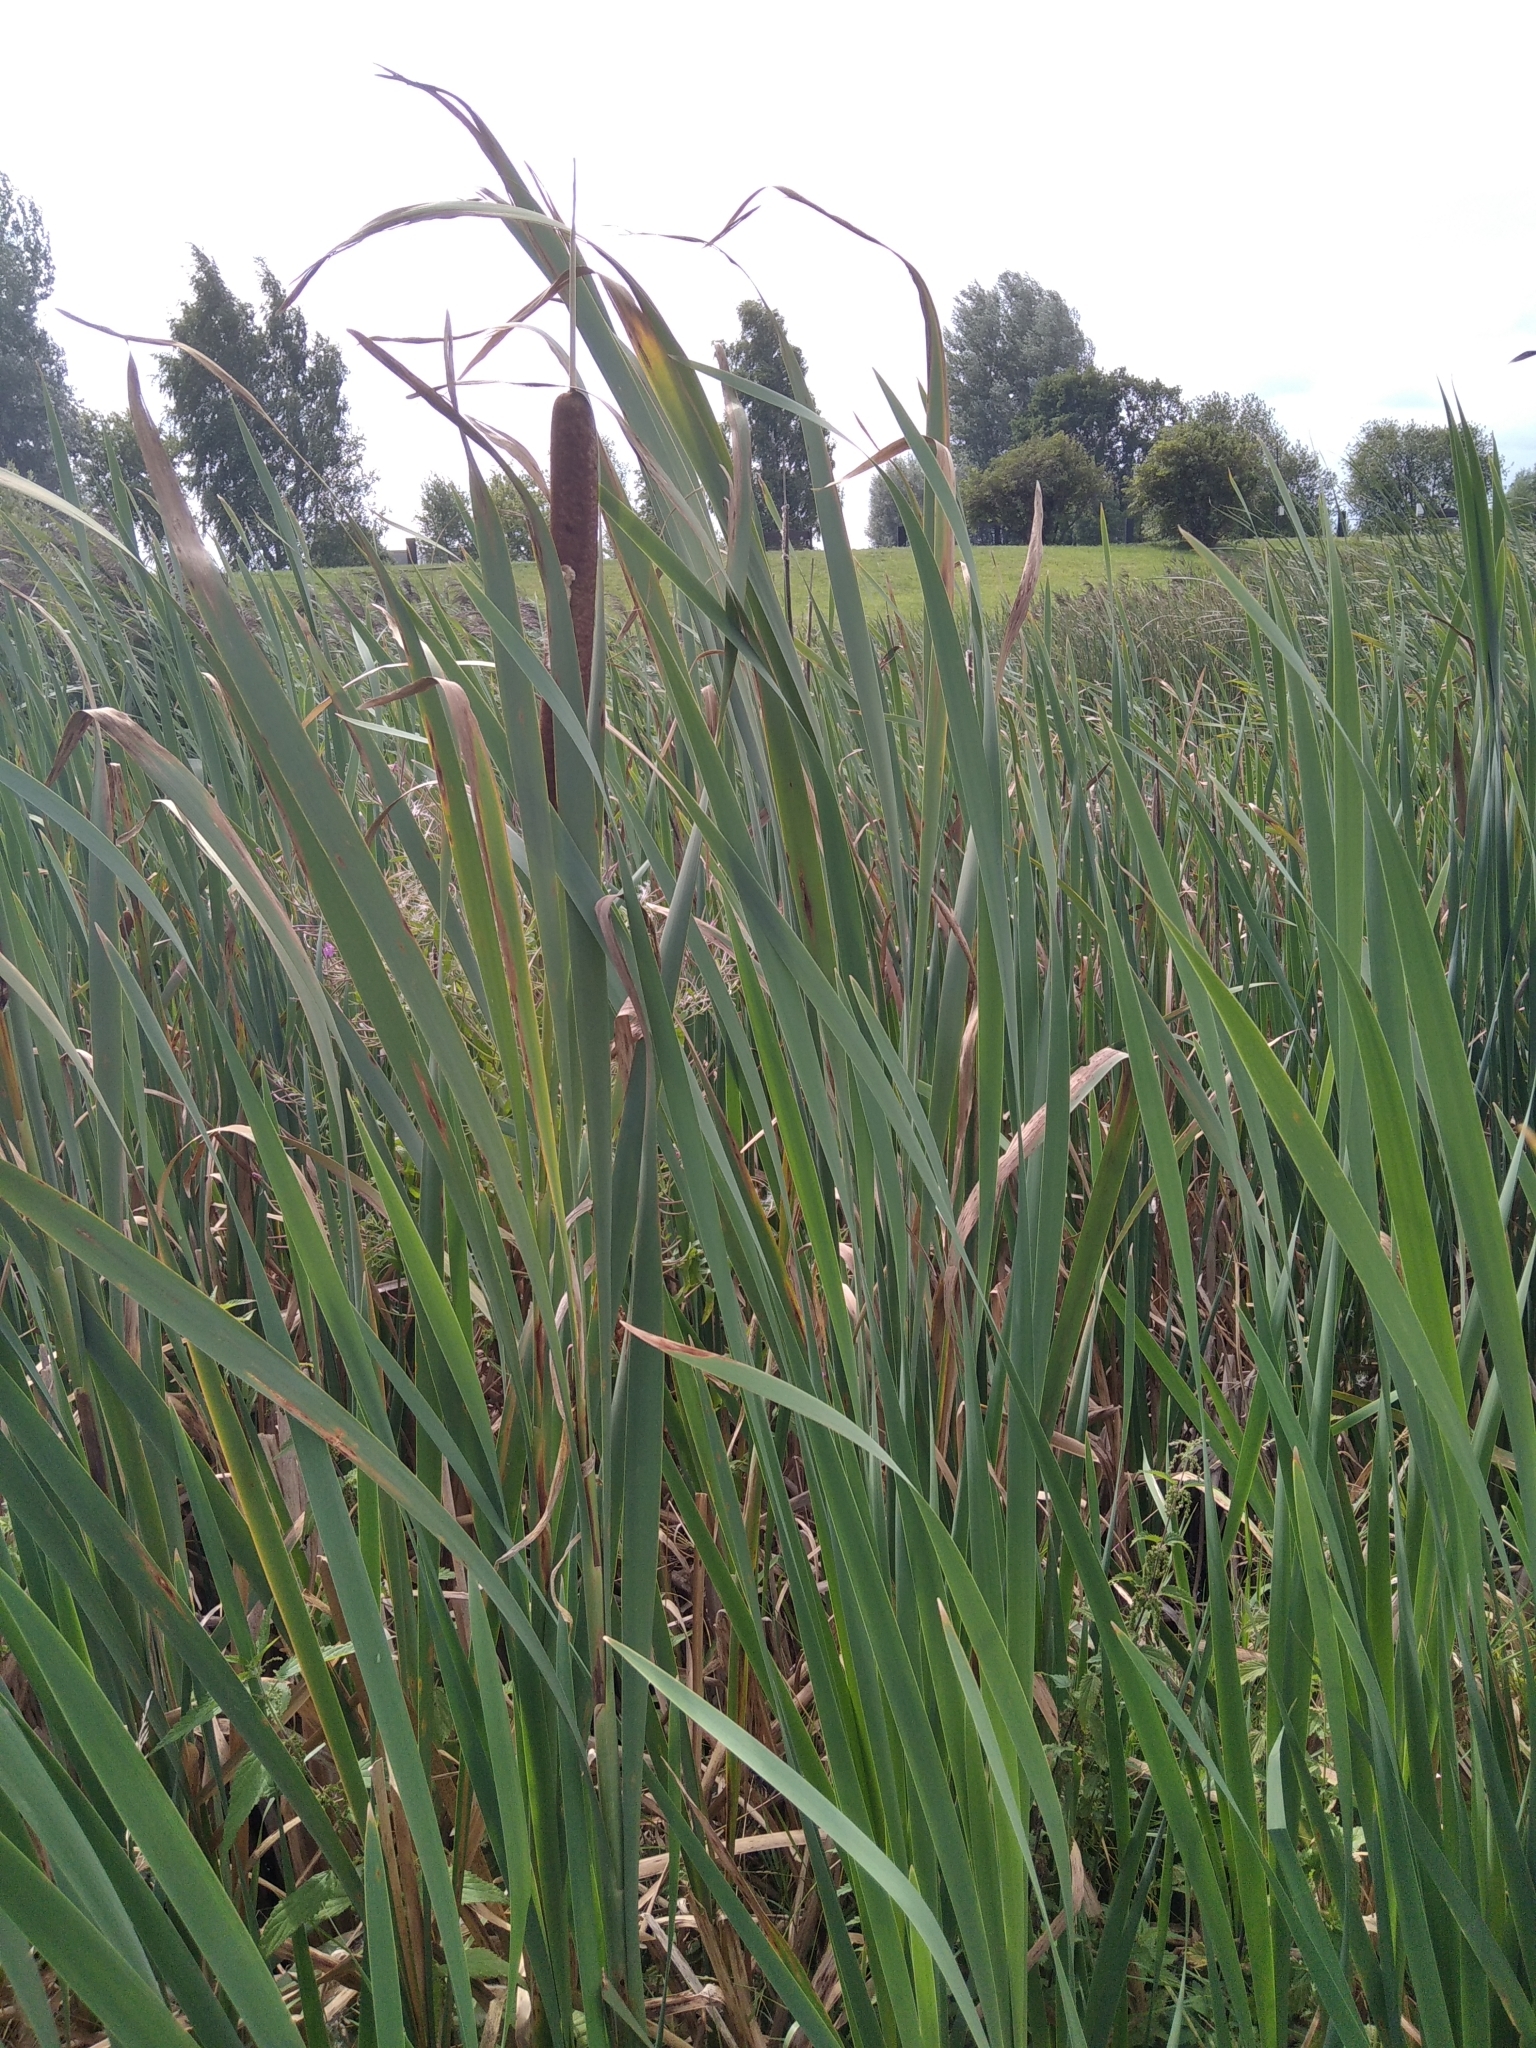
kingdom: Plantae
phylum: Tracheophyta
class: Liliopsida
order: Poales
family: Typhaceae
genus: Typha
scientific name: Typha latifolia
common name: Broadleaf cattail
